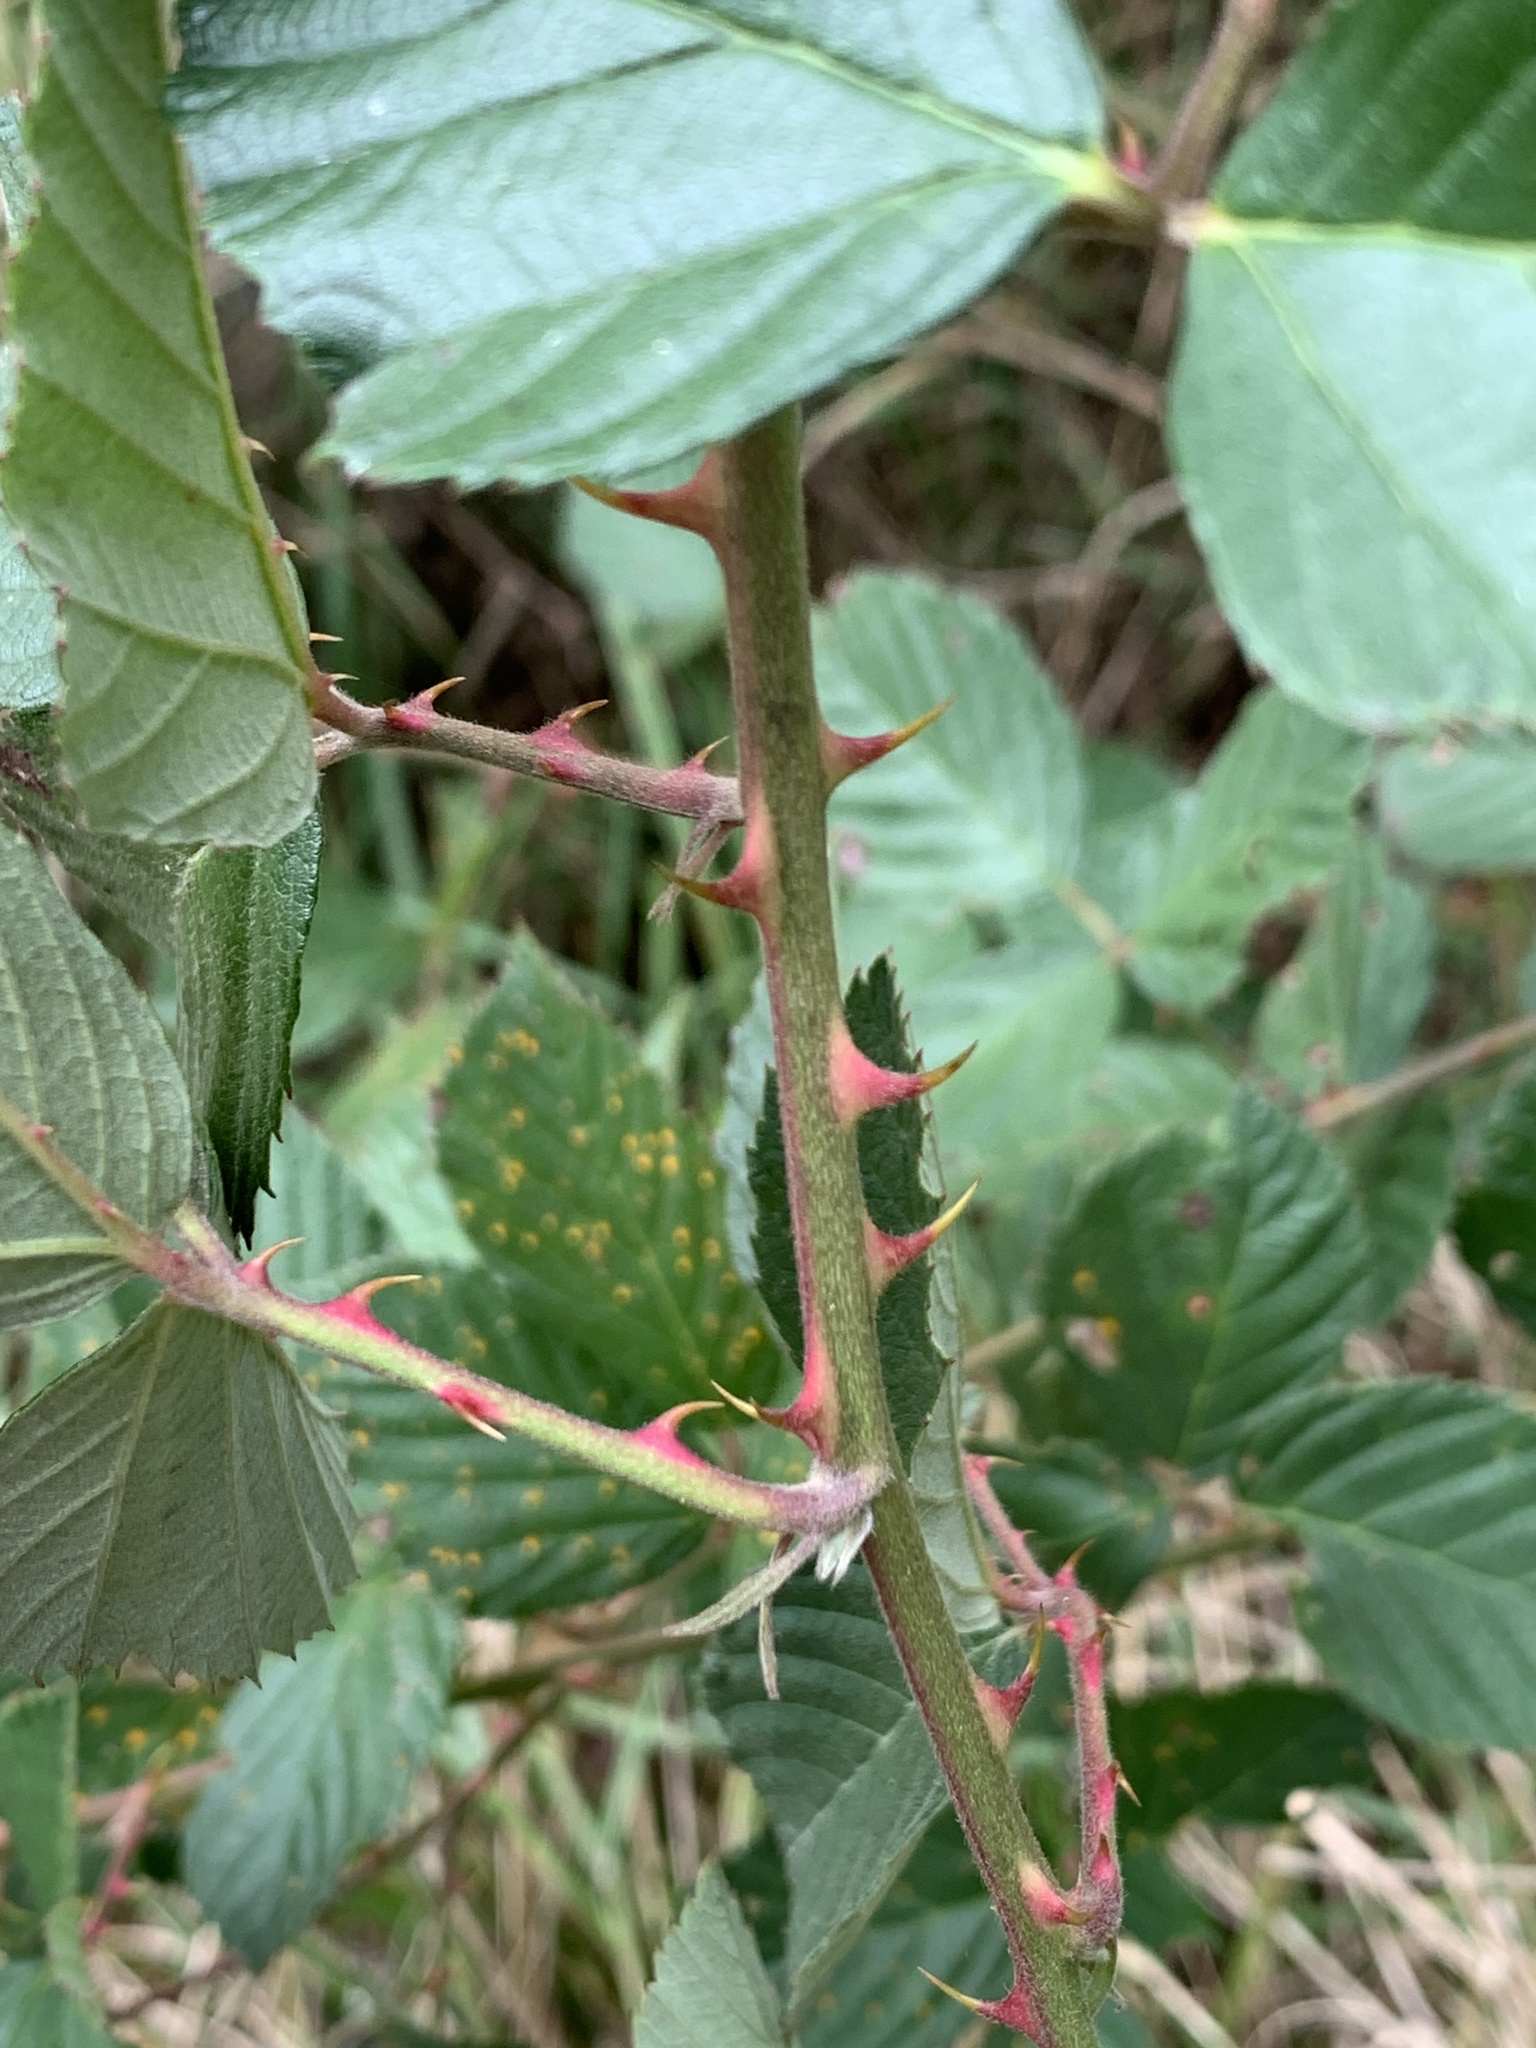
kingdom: Plantae
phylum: Tracheophyta
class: Magnoliopsida
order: Rosales
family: Rosaceae
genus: Rubus
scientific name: Rubus pensilvanicus
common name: Pennsylvania blackberry
